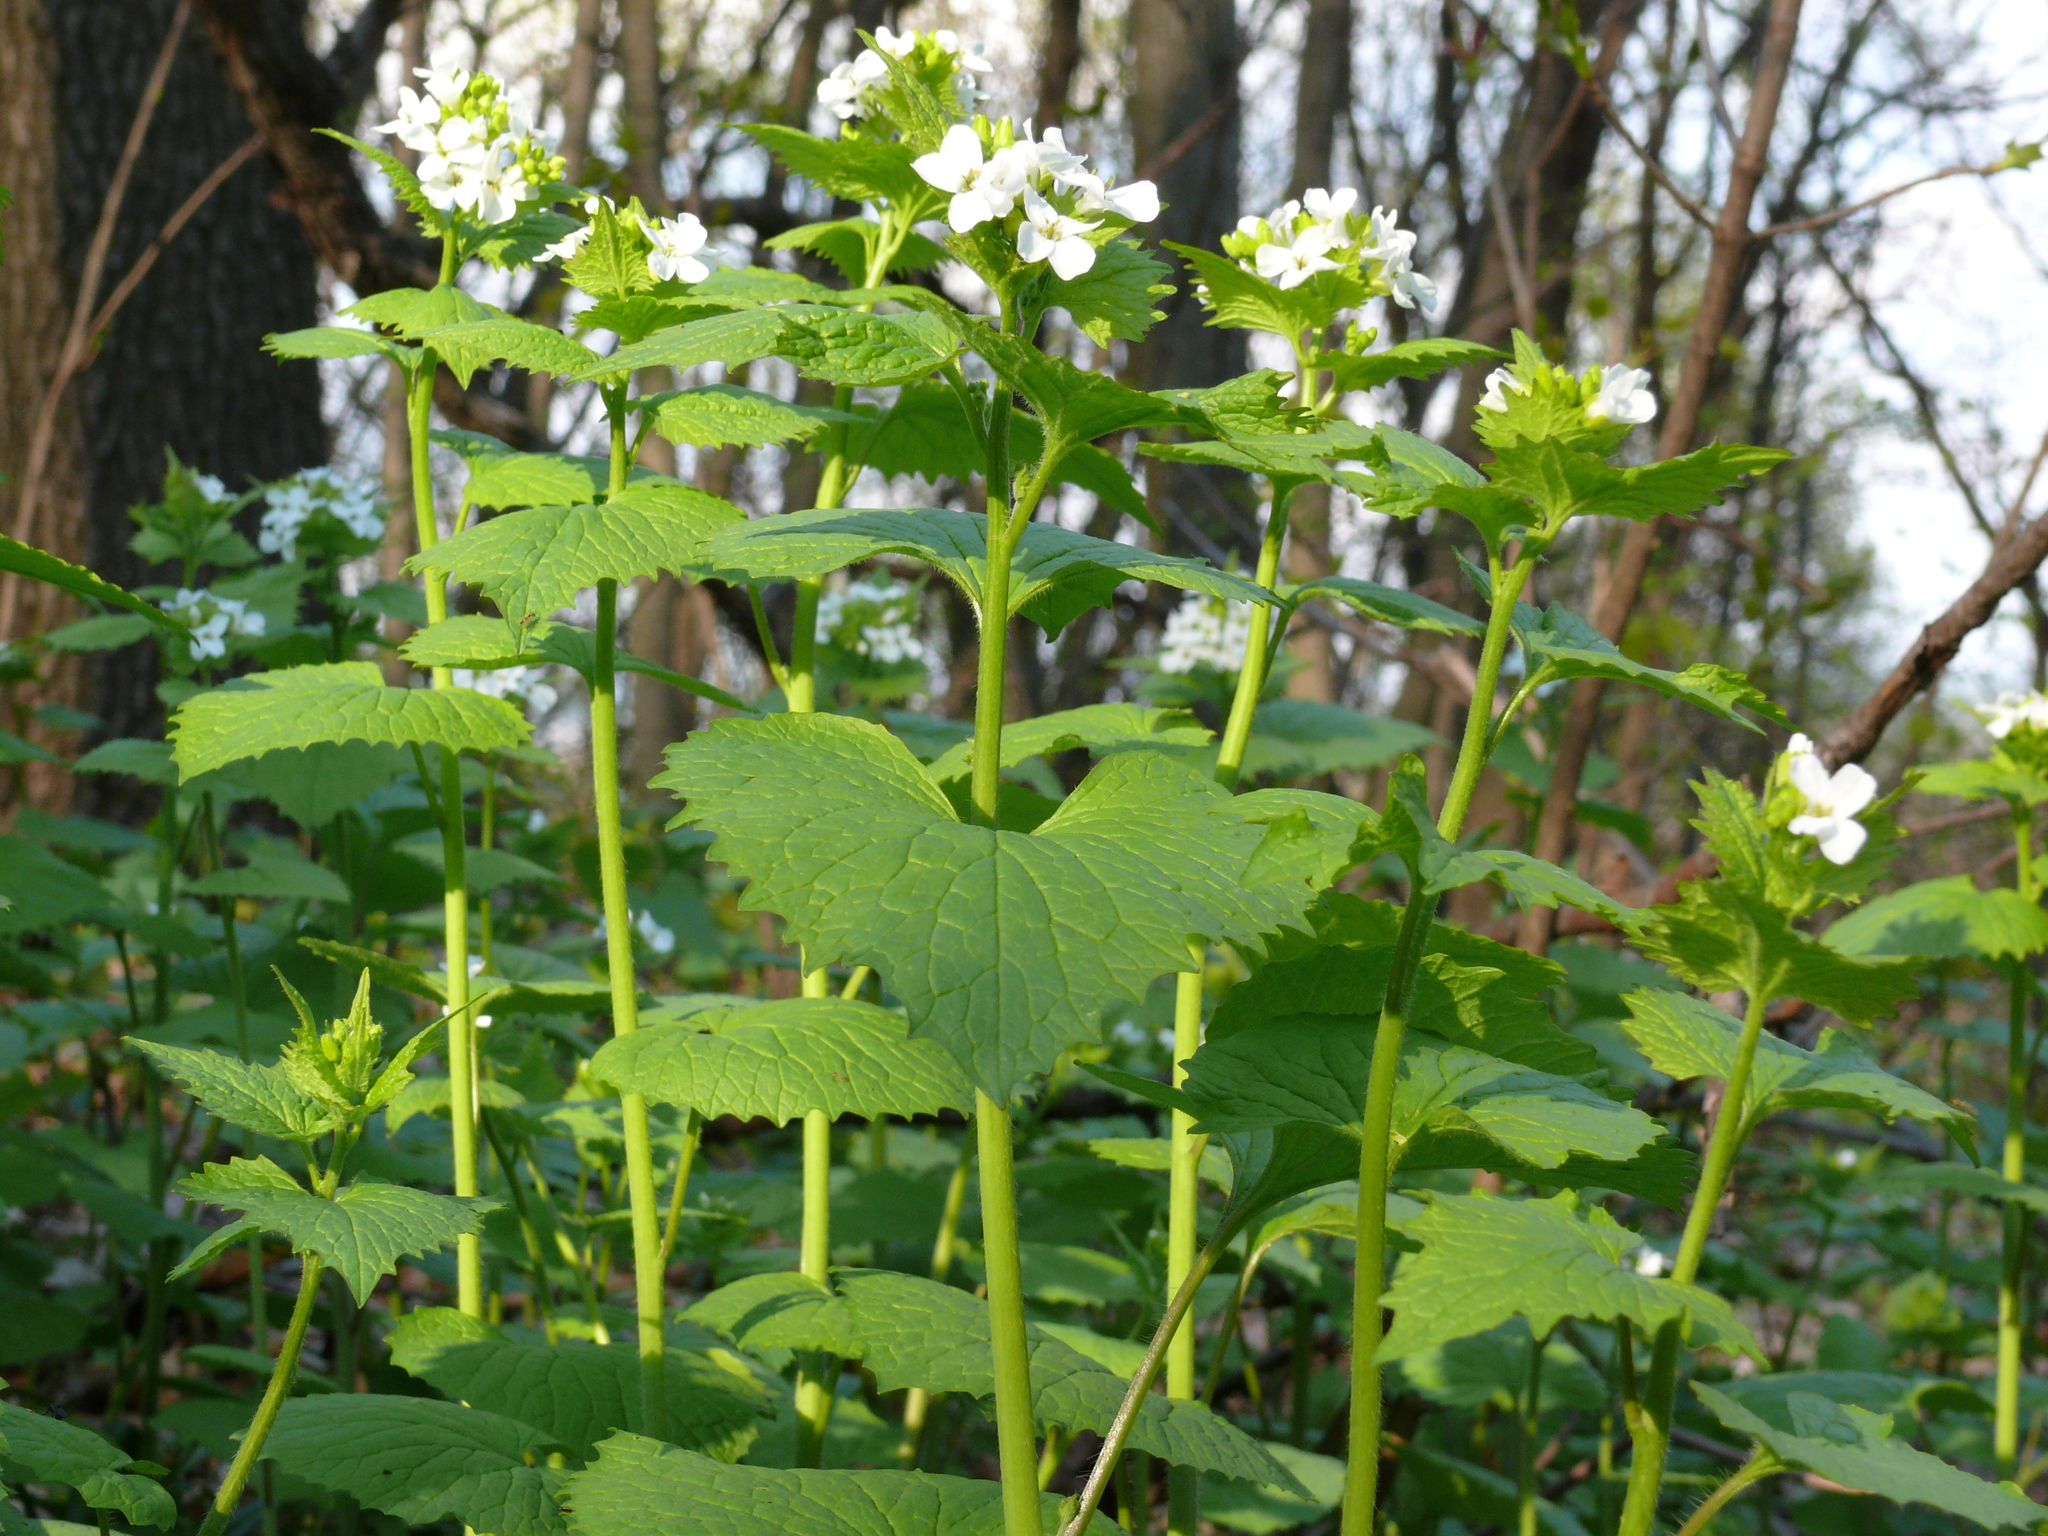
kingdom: Plantae
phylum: Tracheophyta
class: Magnoliopsida
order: Brassicales
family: Brassicaceae
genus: Alliaria
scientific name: Alliaria petiolata
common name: Garlic mustard
